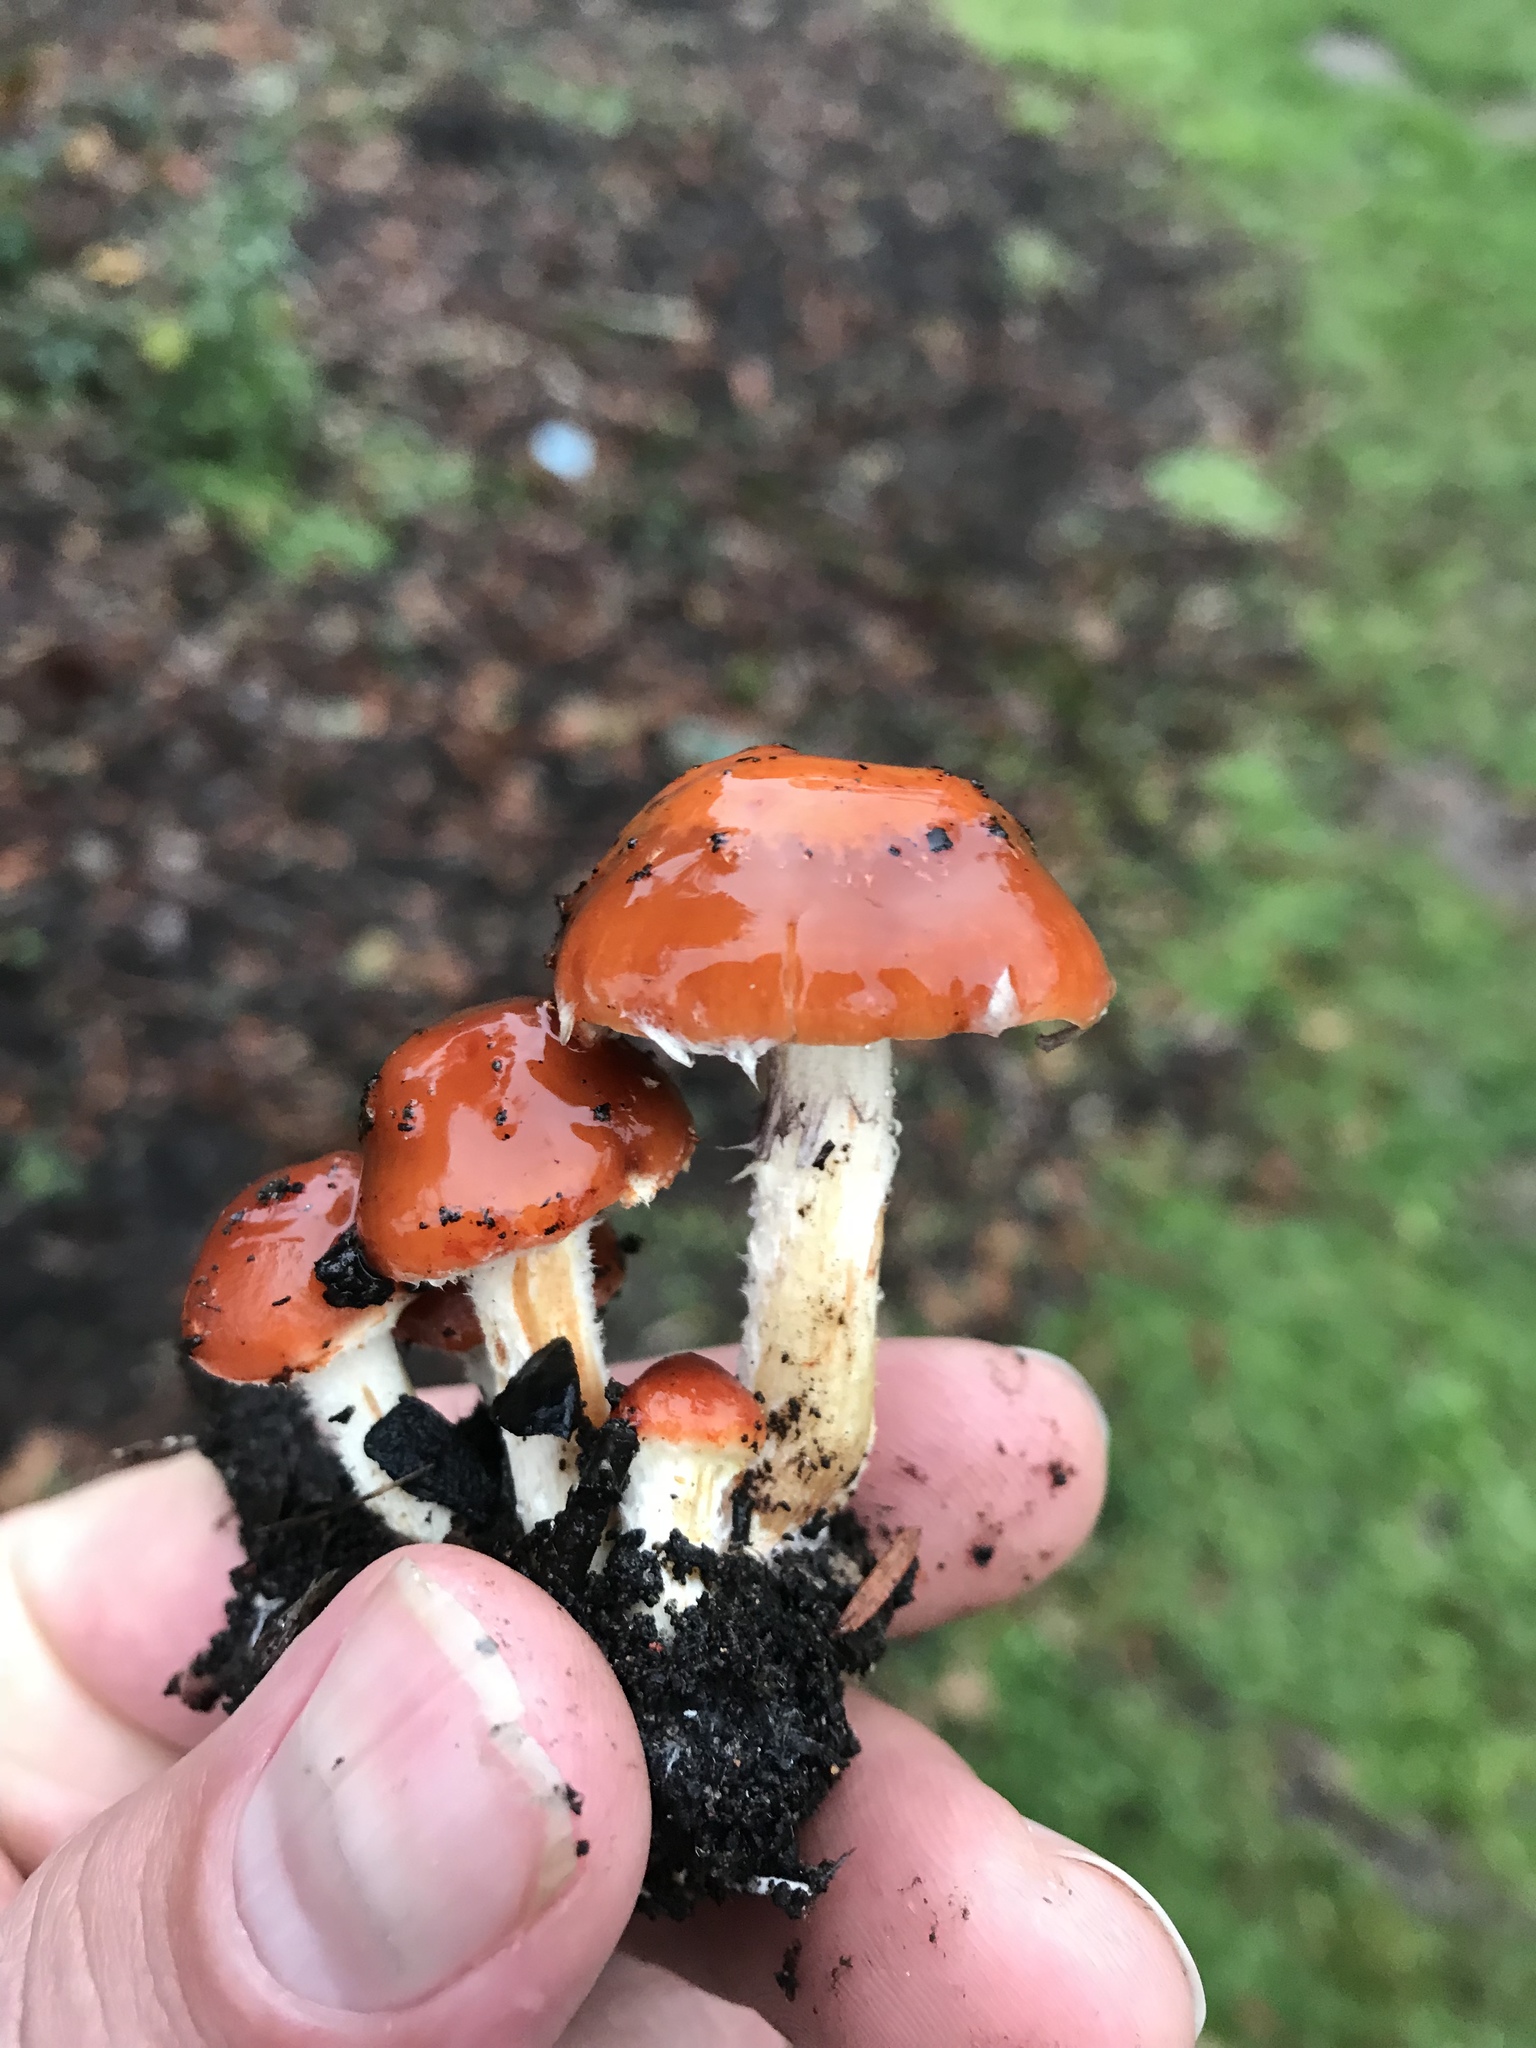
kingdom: Fungi
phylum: Basidiomycota
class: Agaricomycetes
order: Agaricales
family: Strophariaceae
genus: Leratiomyces
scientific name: Leratiomyces ceres
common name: Redlead roundhead
